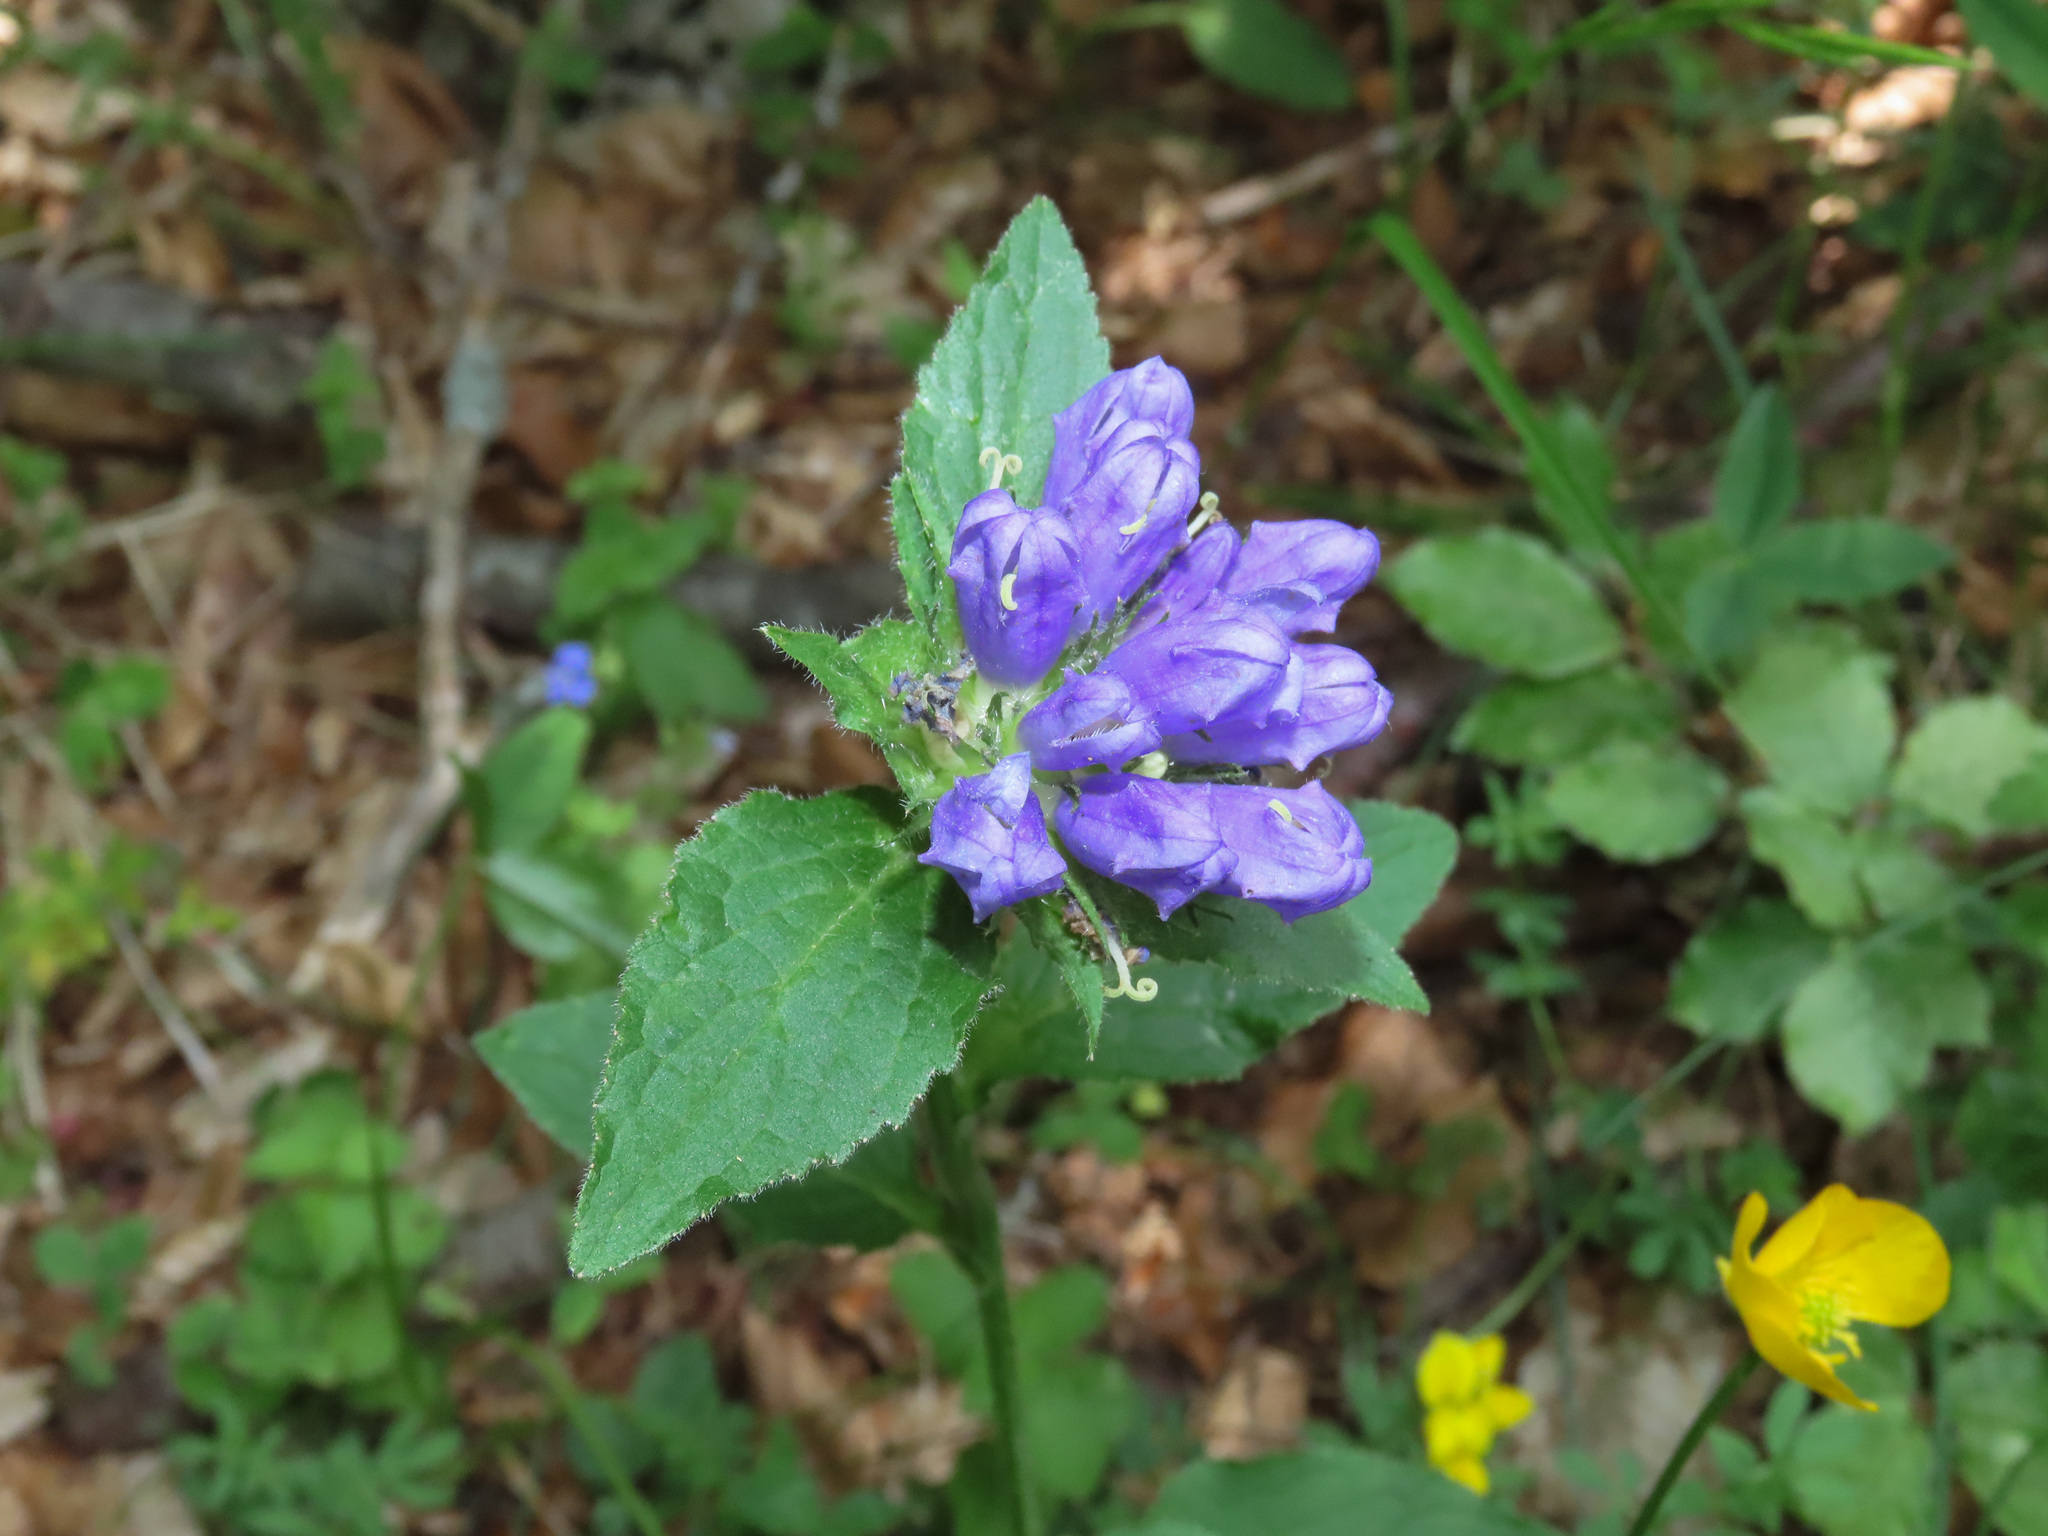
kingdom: Plantae
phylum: Tracheophyta
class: Magnoliopsida
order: Asterales
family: Campanulaceae
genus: Campanula
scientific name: Campanula foliosa
